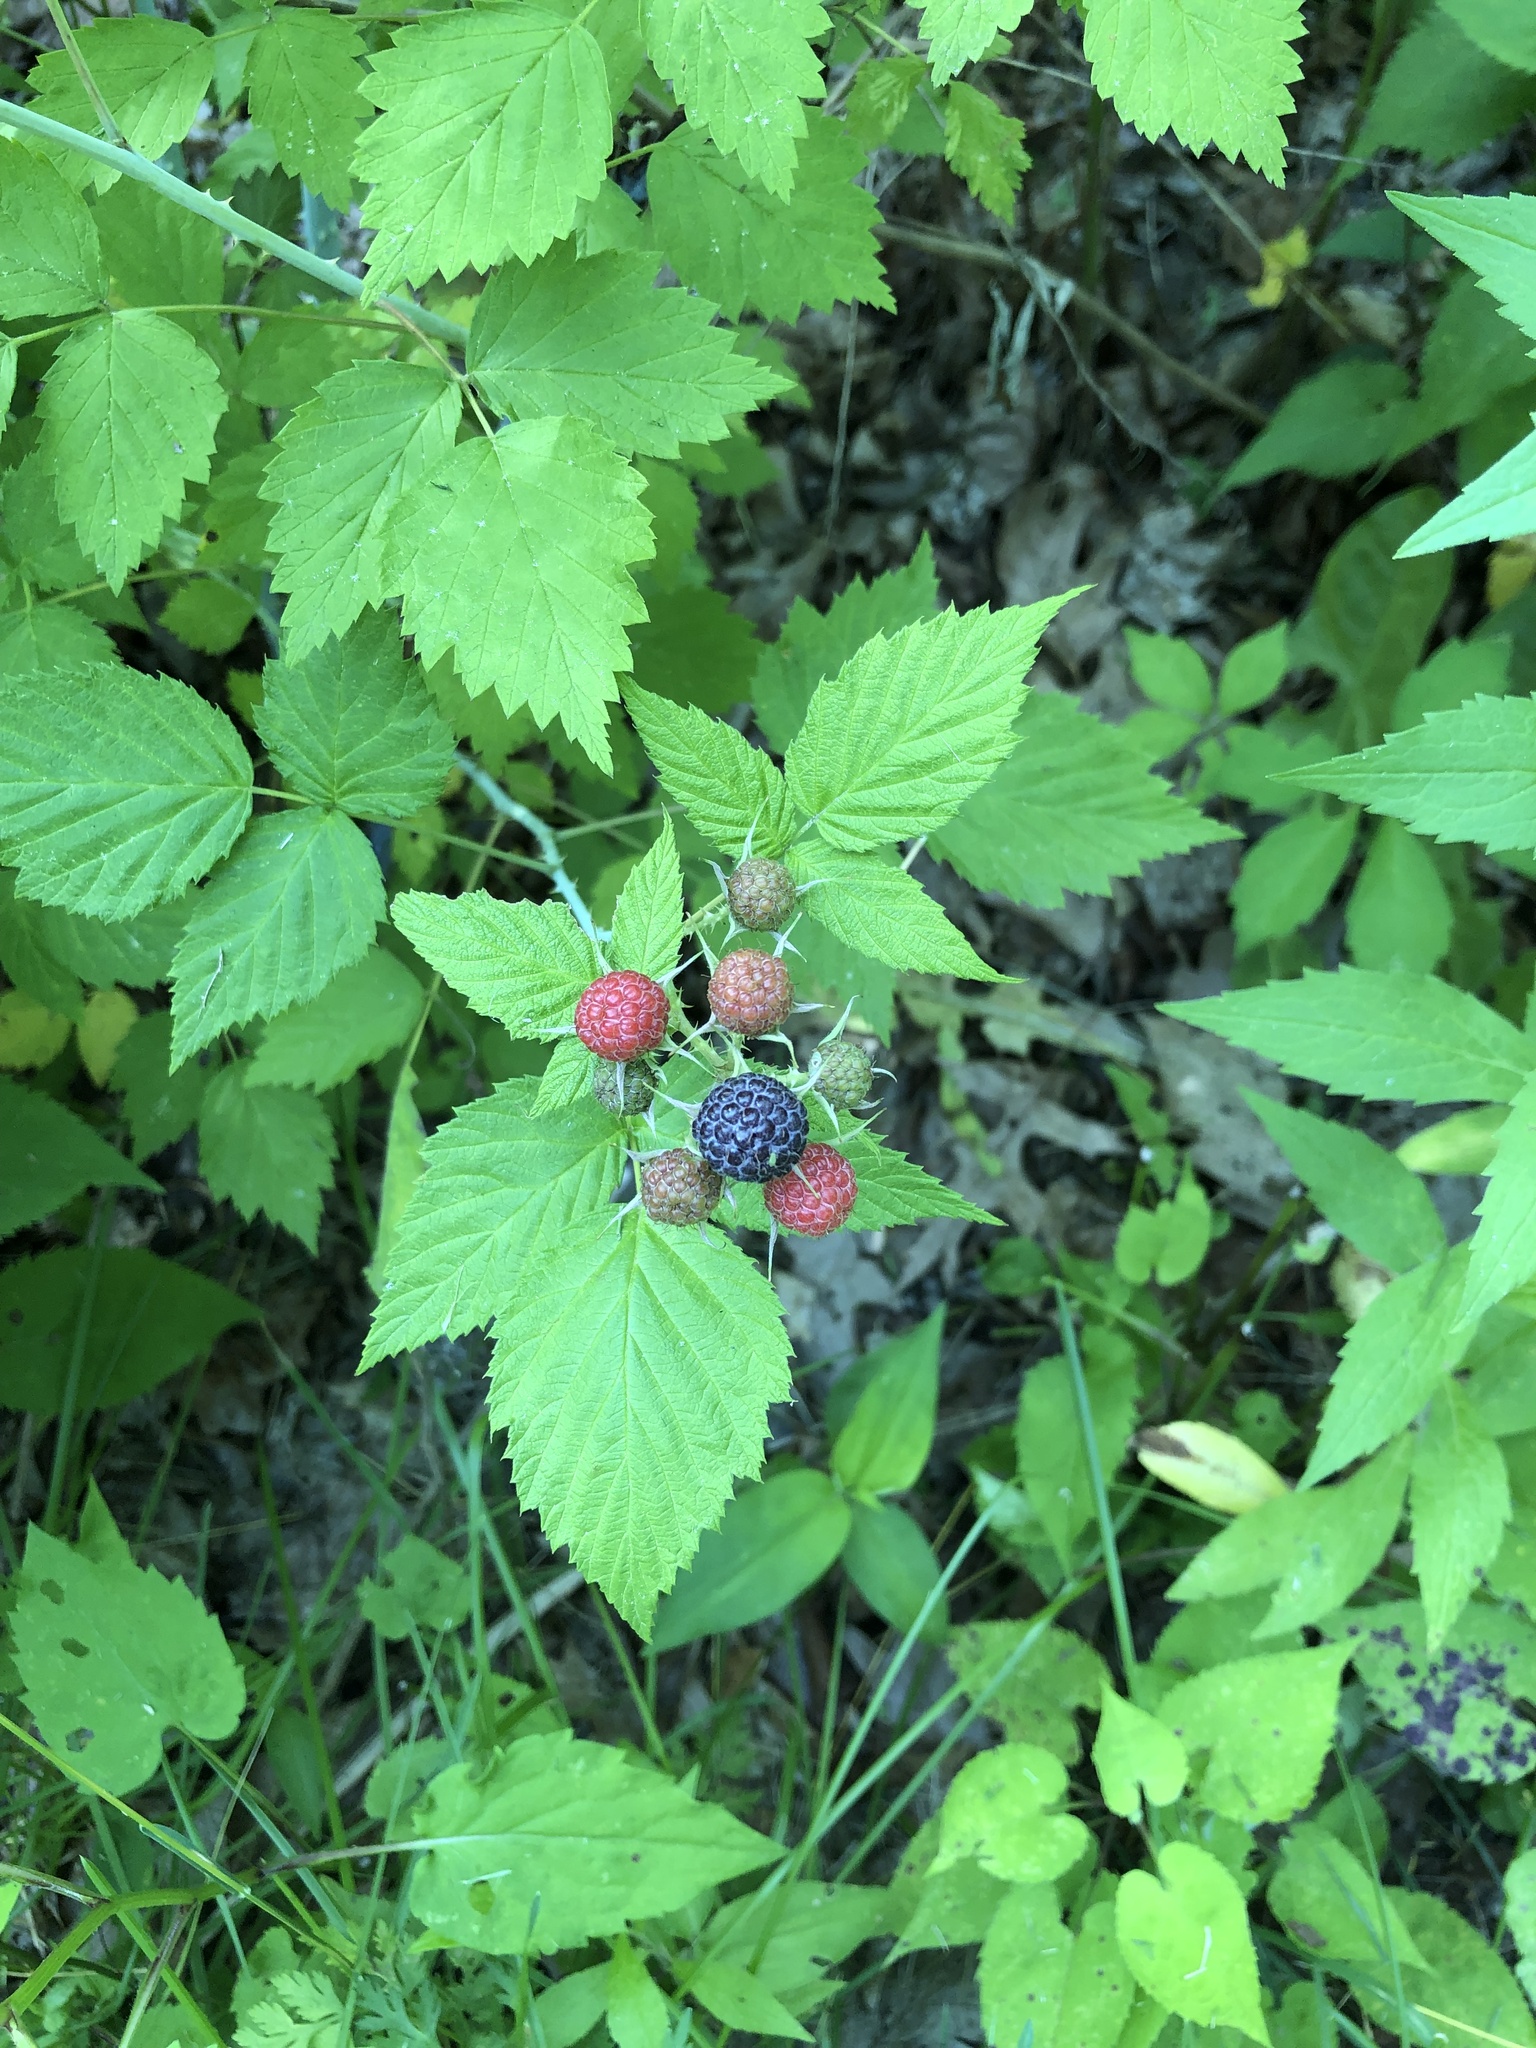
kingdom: Plantae
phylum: Tracheophyta
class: Magnoliopsida
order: Rosales
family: Rosaceae
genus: Rubus
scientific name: Rubus occidentalis
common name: Black raspberry
